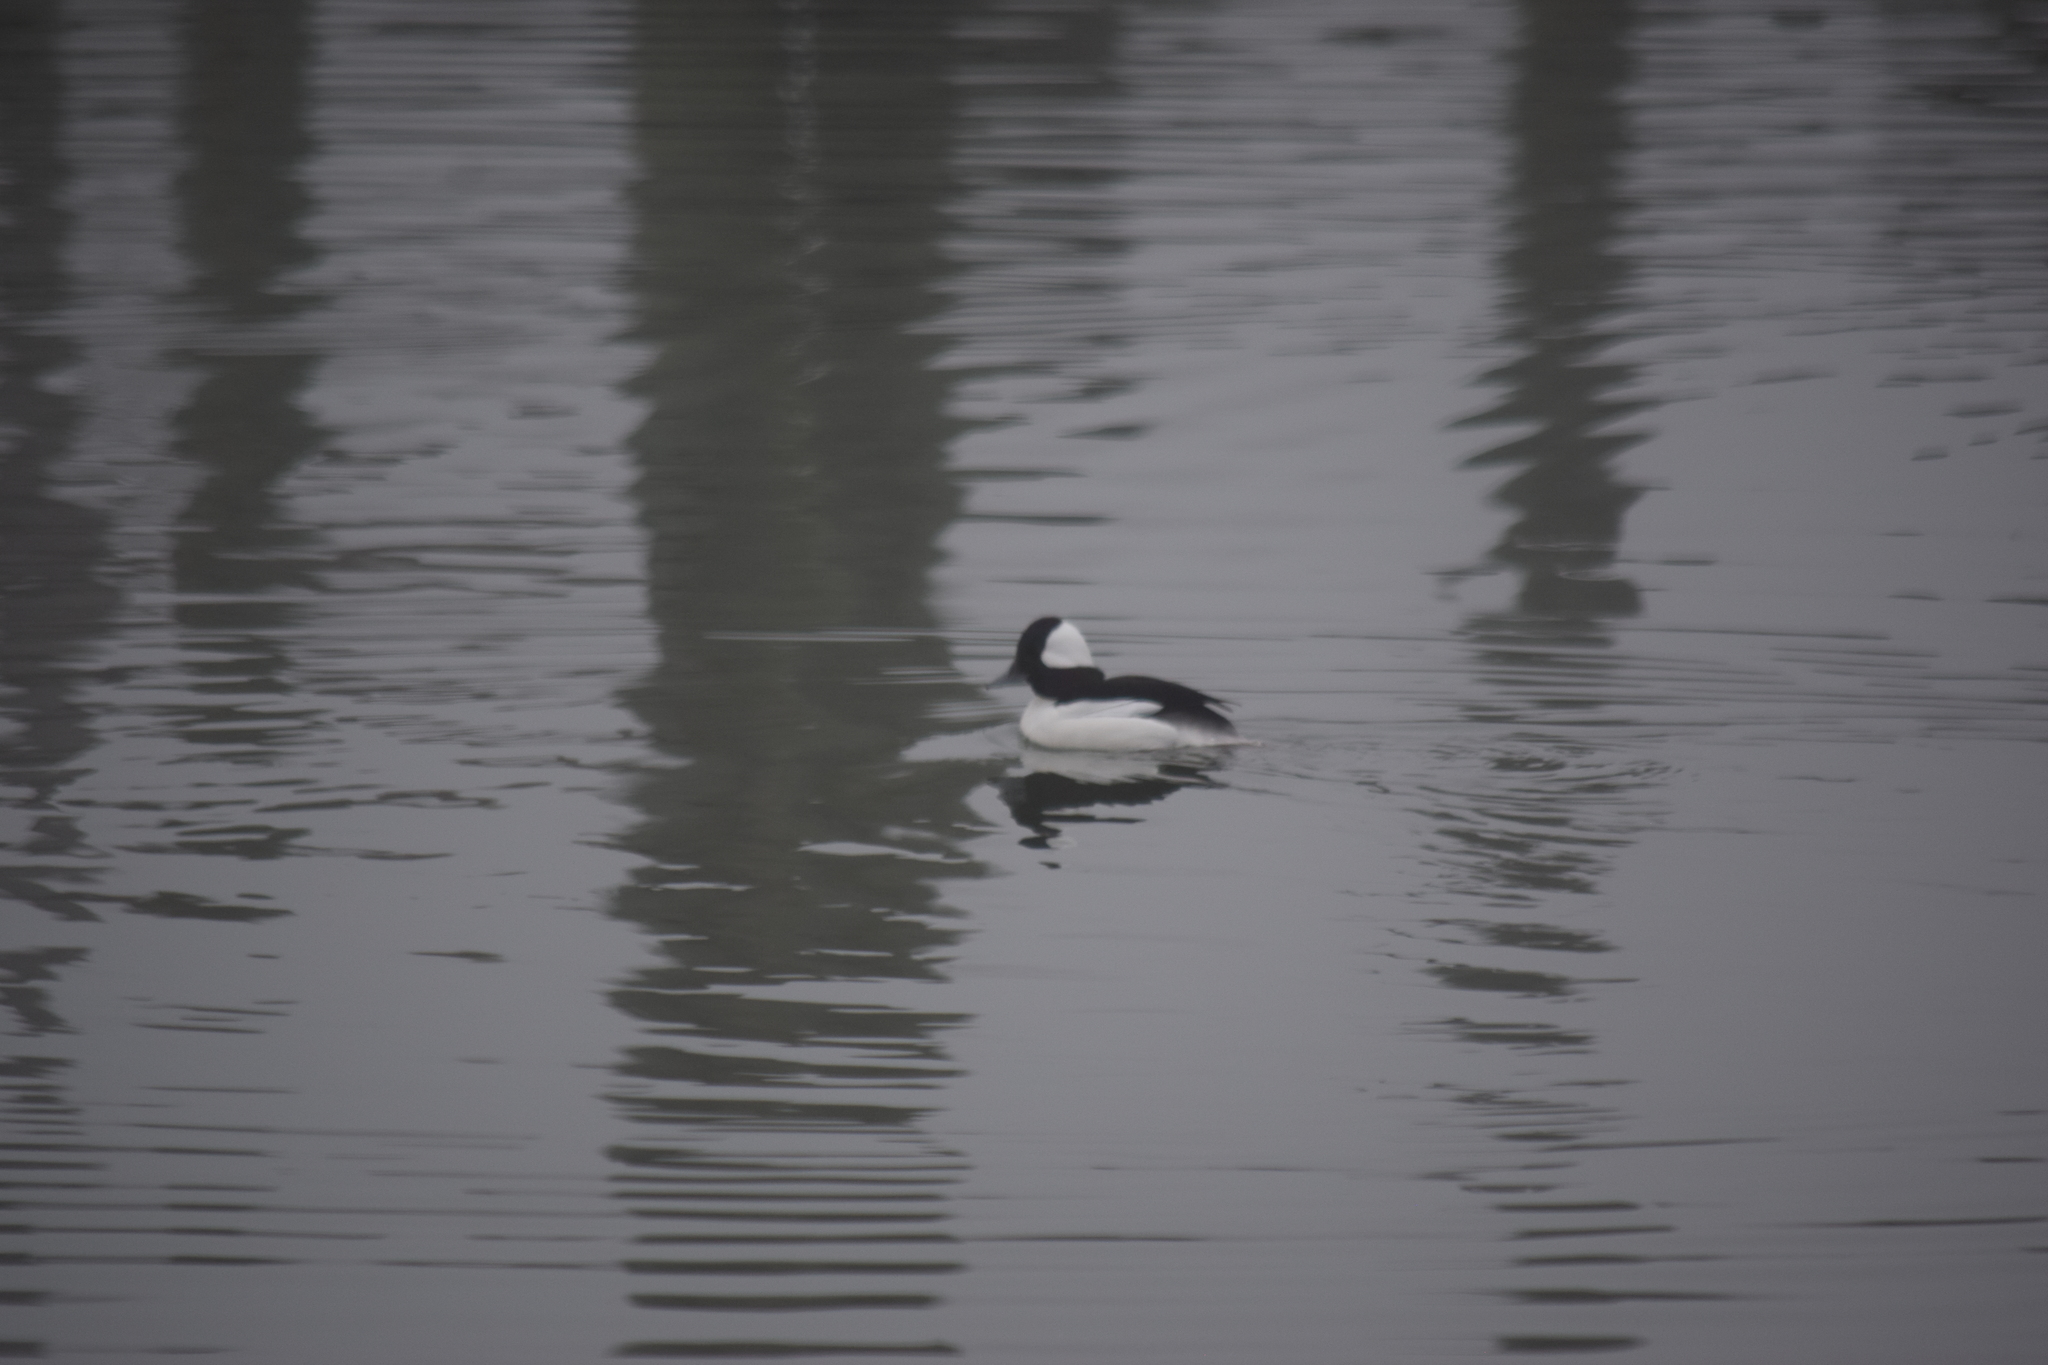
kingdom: Animalia
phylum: Chordata
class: Aves
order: Anseriformes
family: Anatidae
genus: Bucephala
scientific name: Bucephala albeola
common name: Bufflehead
